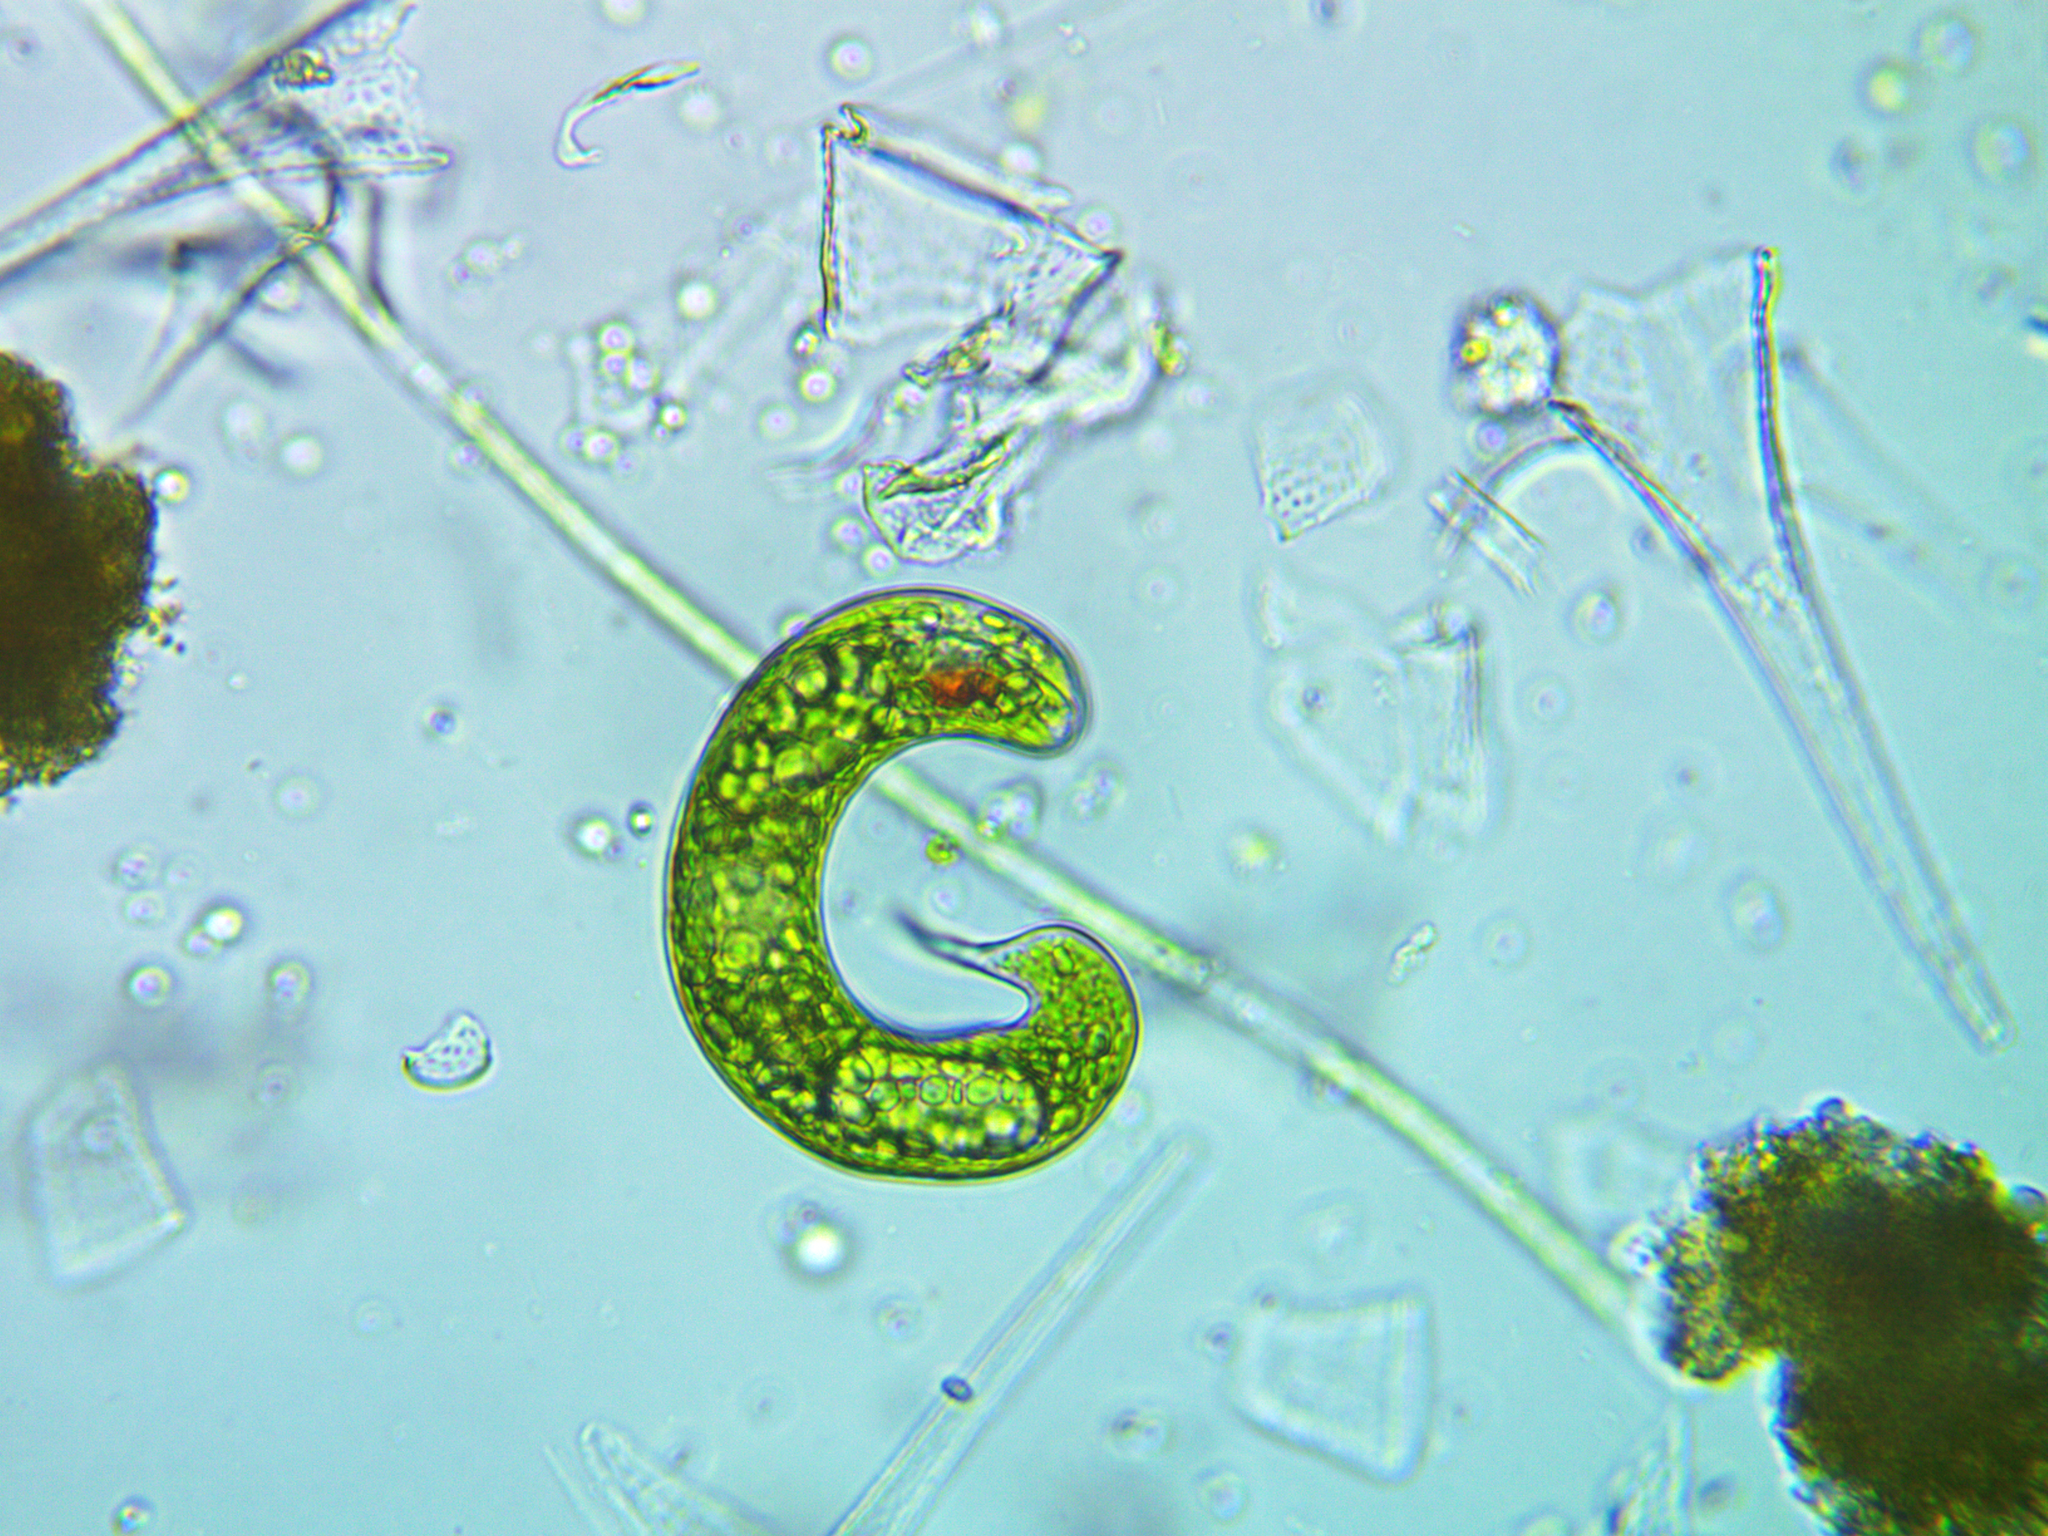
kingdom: Protozoa
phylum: Euglenozoa
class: Euglenoidea
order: Euglenida
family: Phacidae
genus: Lepocinclis
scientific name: Lepocinclis oxyuris
